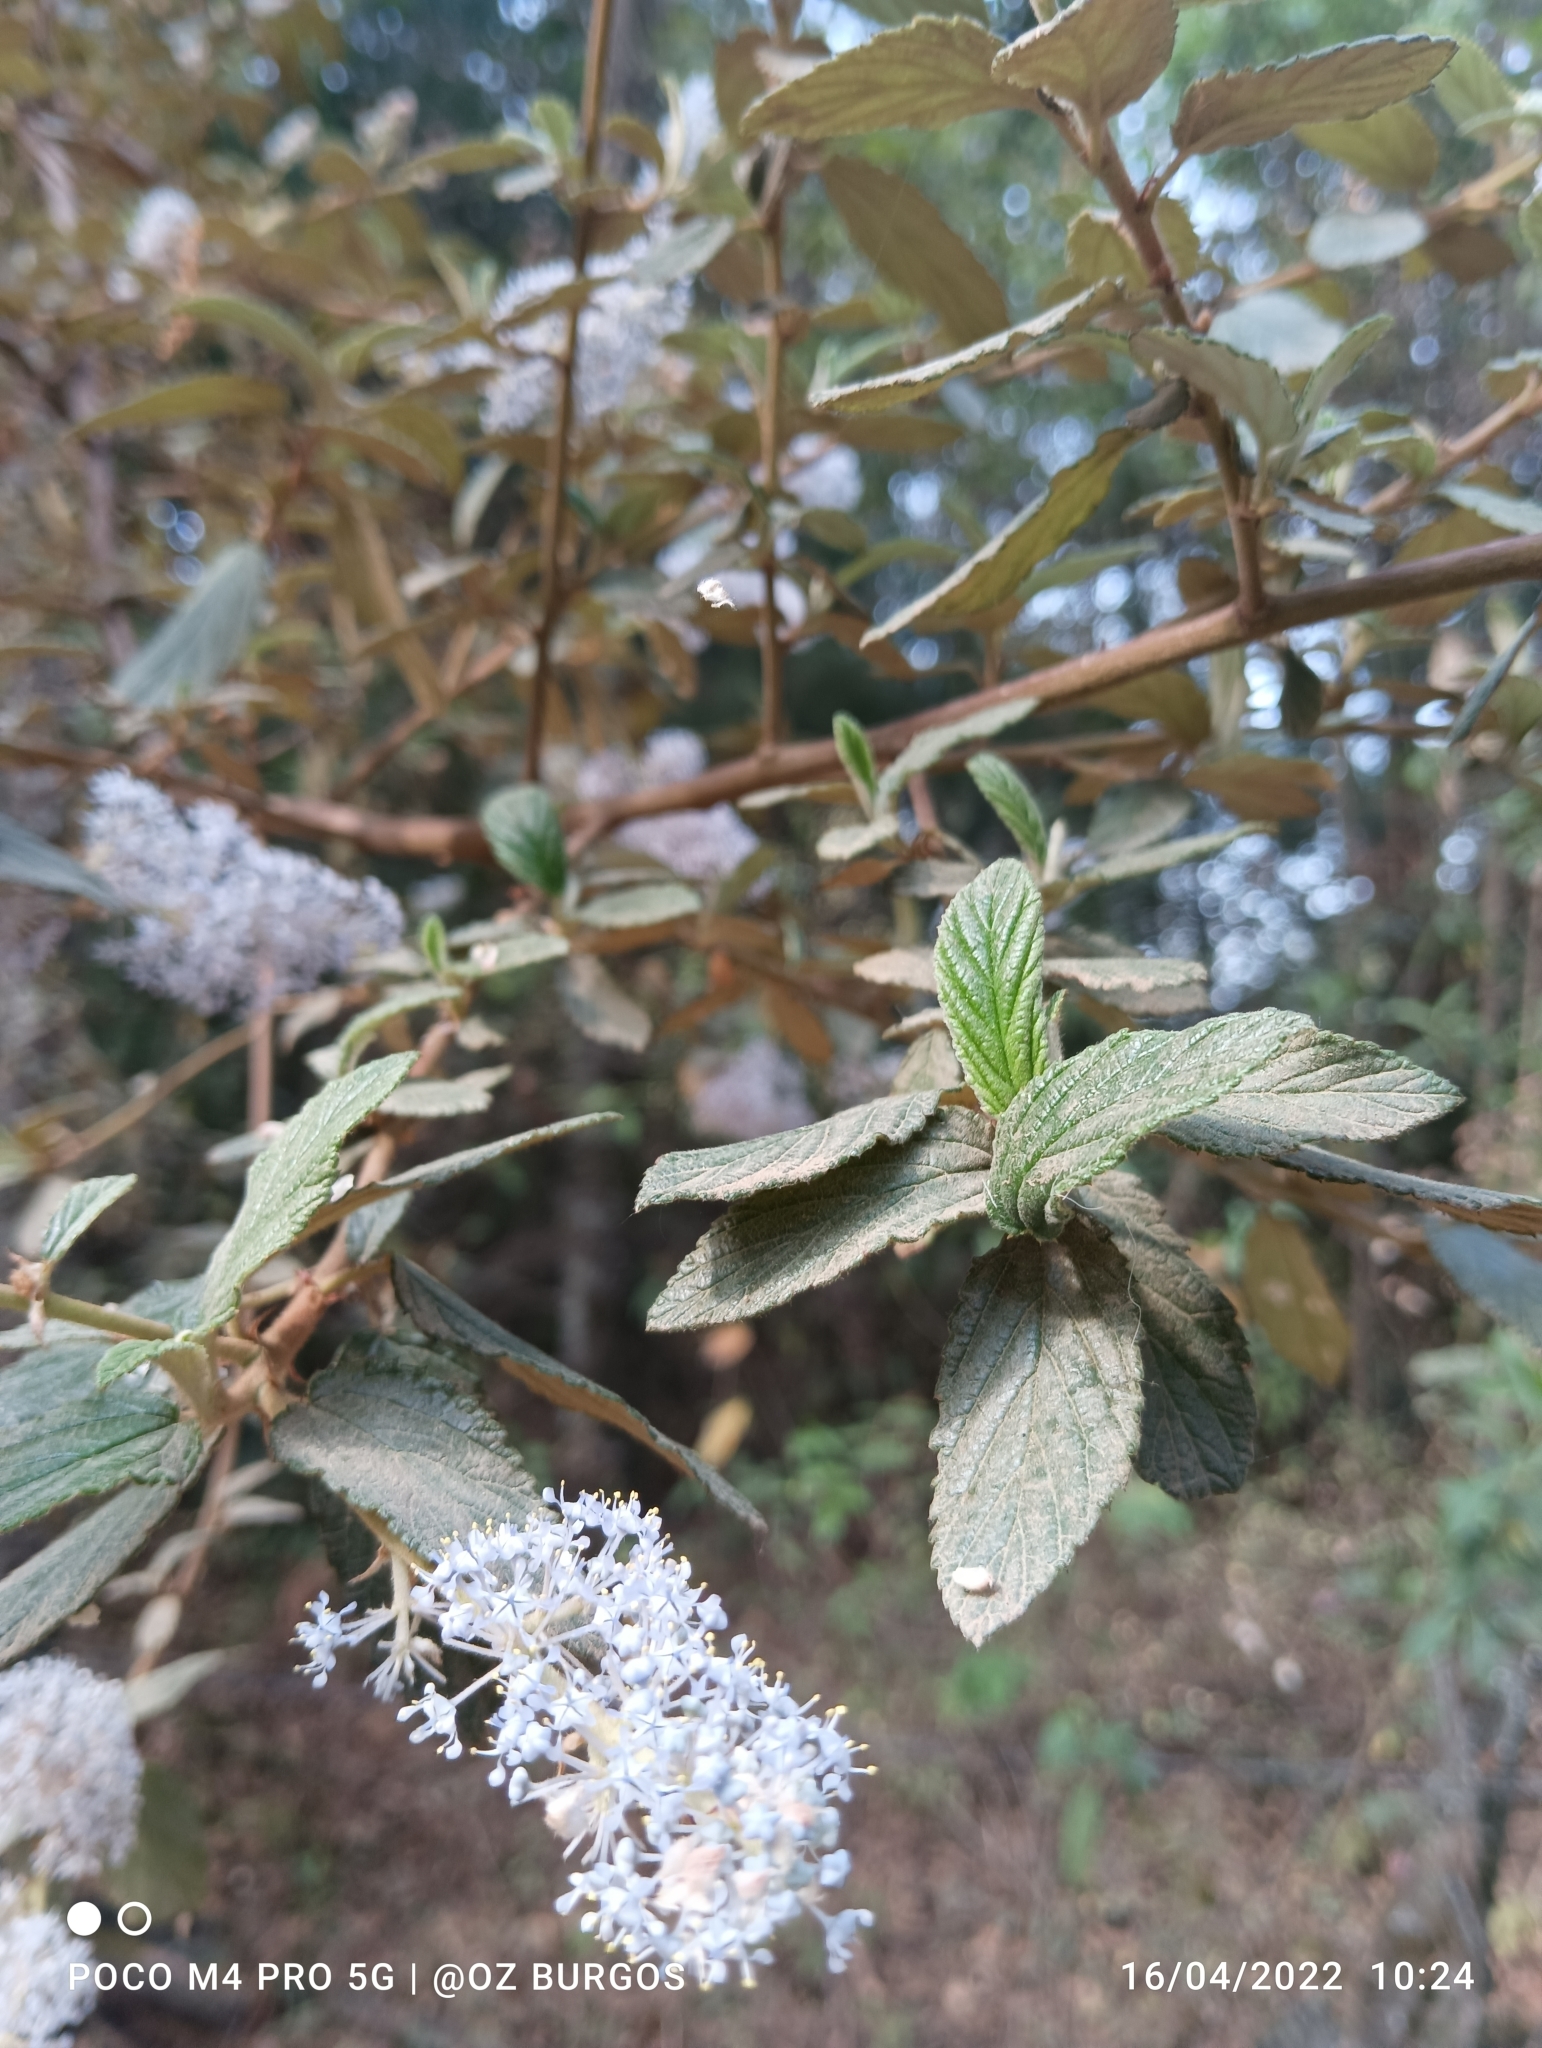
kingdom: Plantae
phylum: Tracheophyta
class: Magnoliopsida
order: Rosales
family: Rhamnaceae
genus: Ceanothus
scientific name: Ceanothus caeruleus
